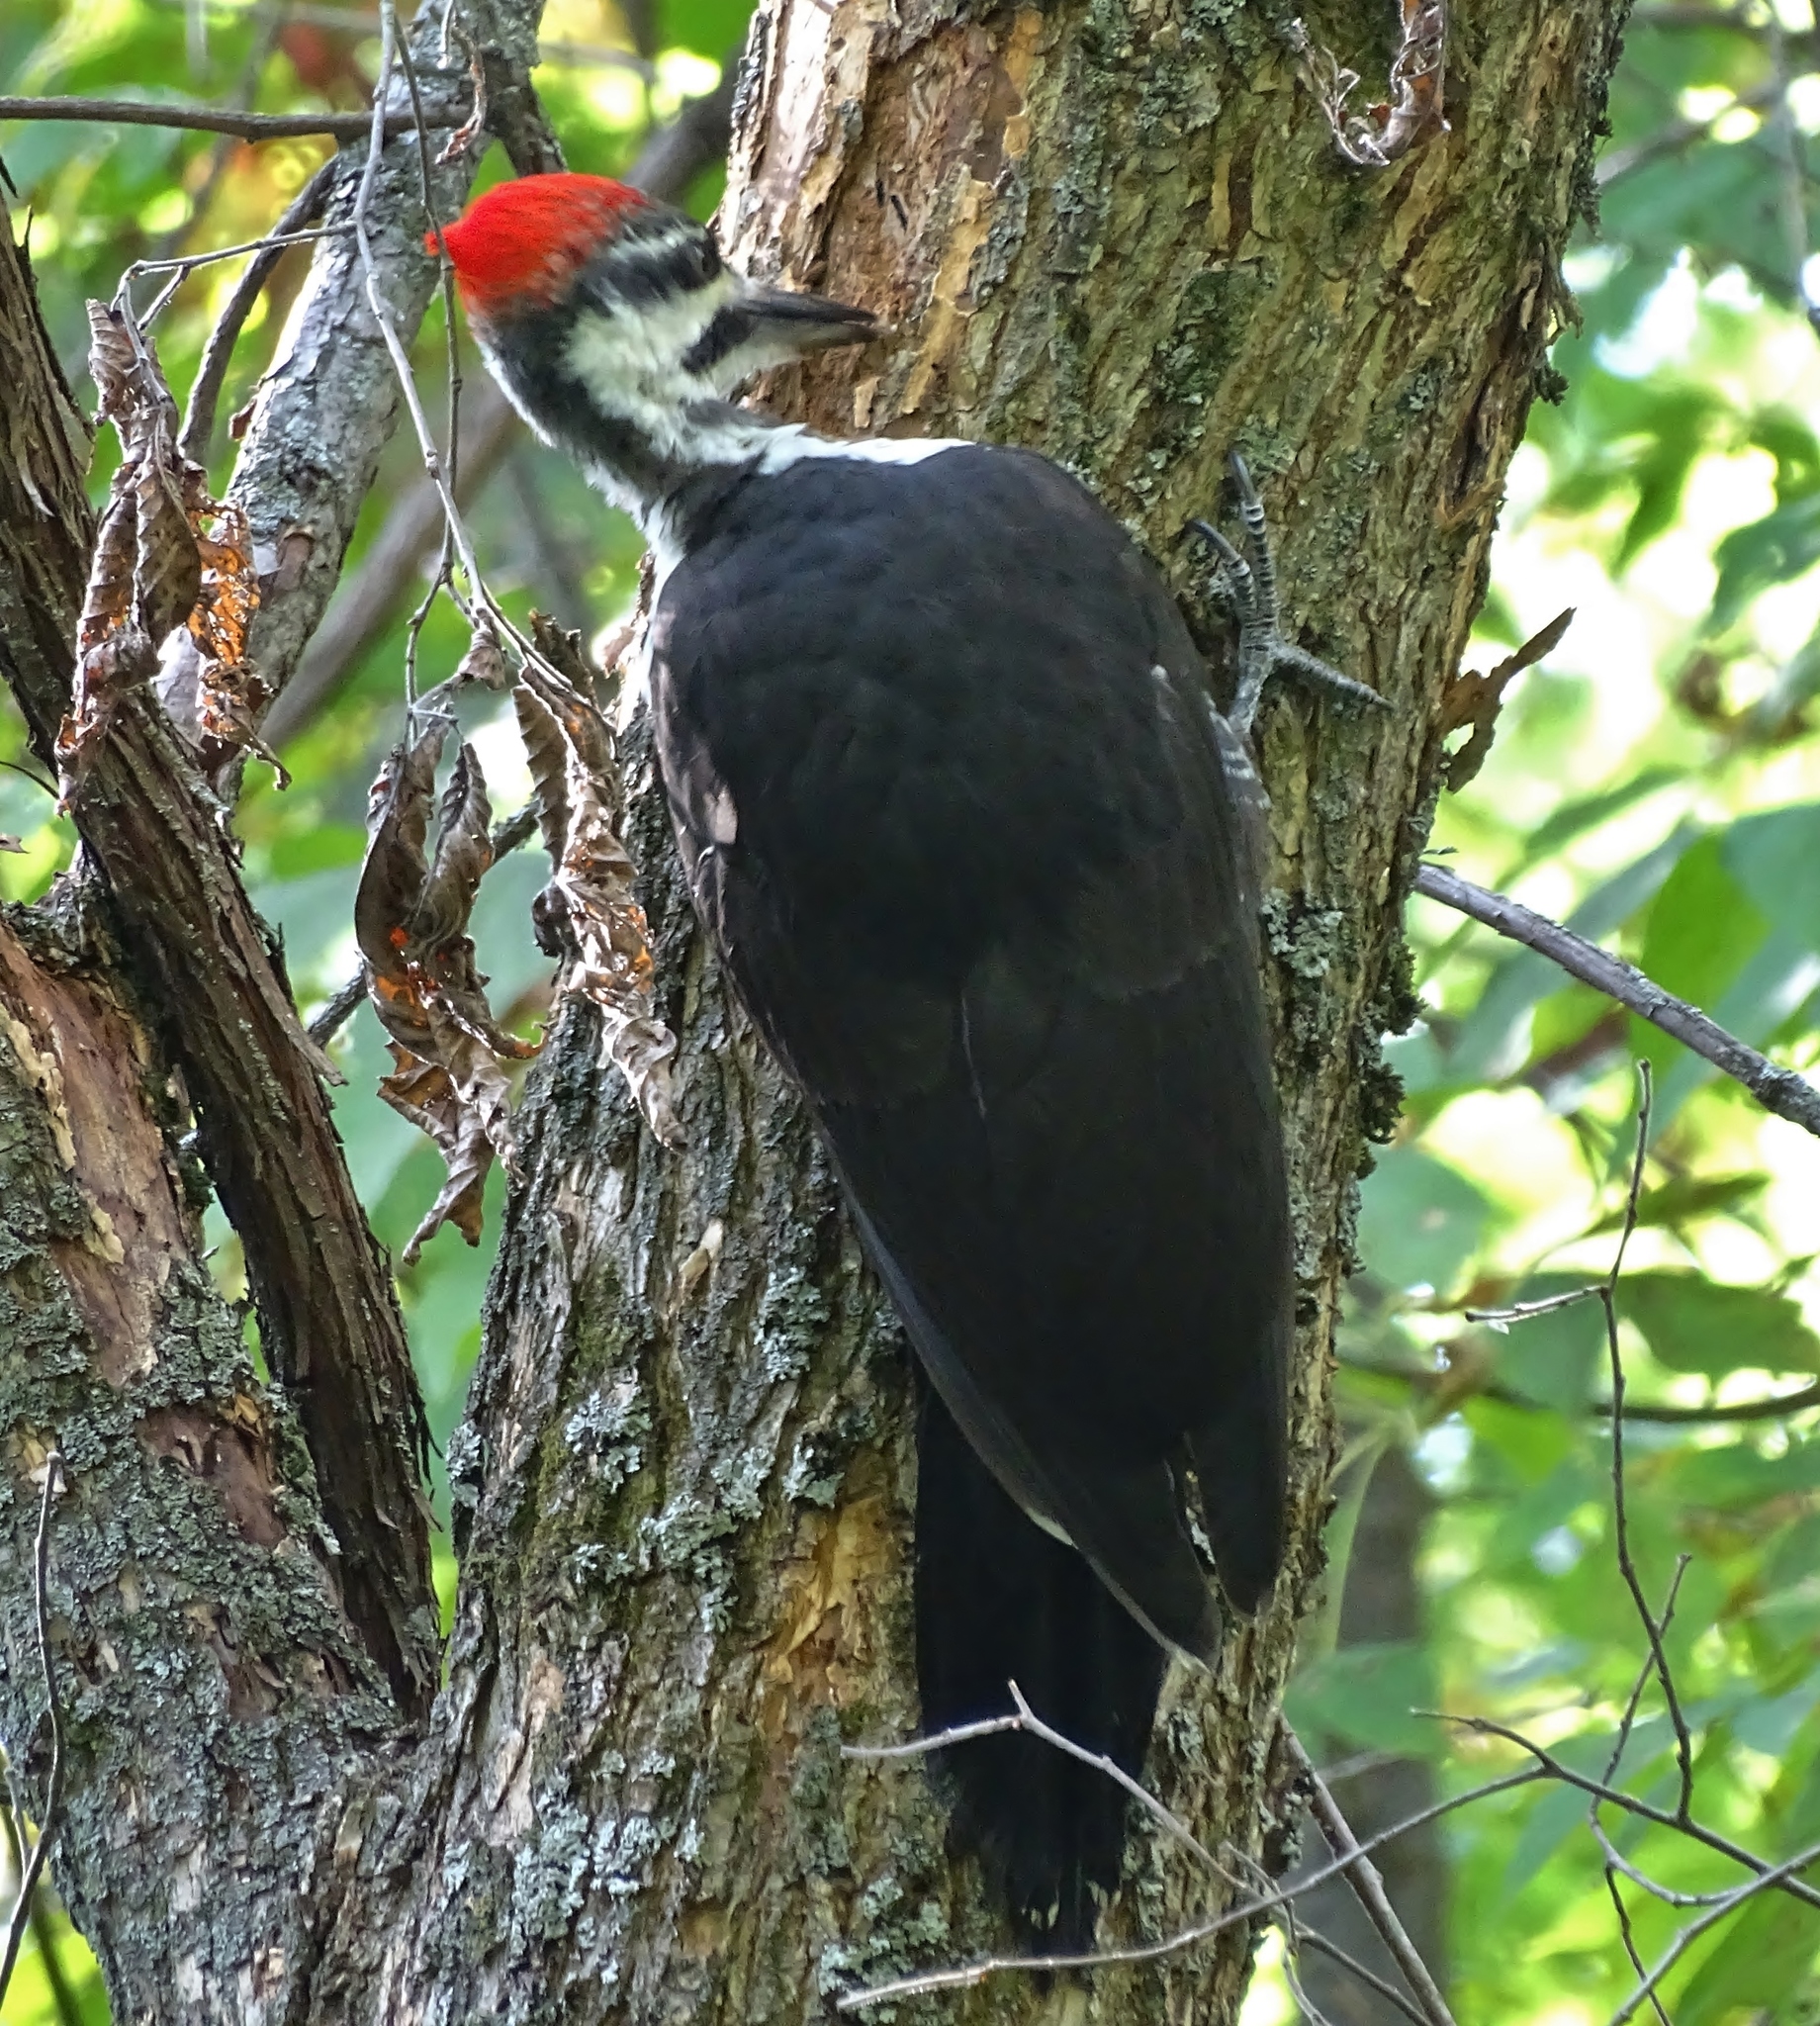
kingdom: Animalia
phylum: Chordata
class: Aves
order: Piciformes
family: Picidae
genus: Dryocopus
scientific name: Dryocopus pileatus
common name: Pileated woodpecker
